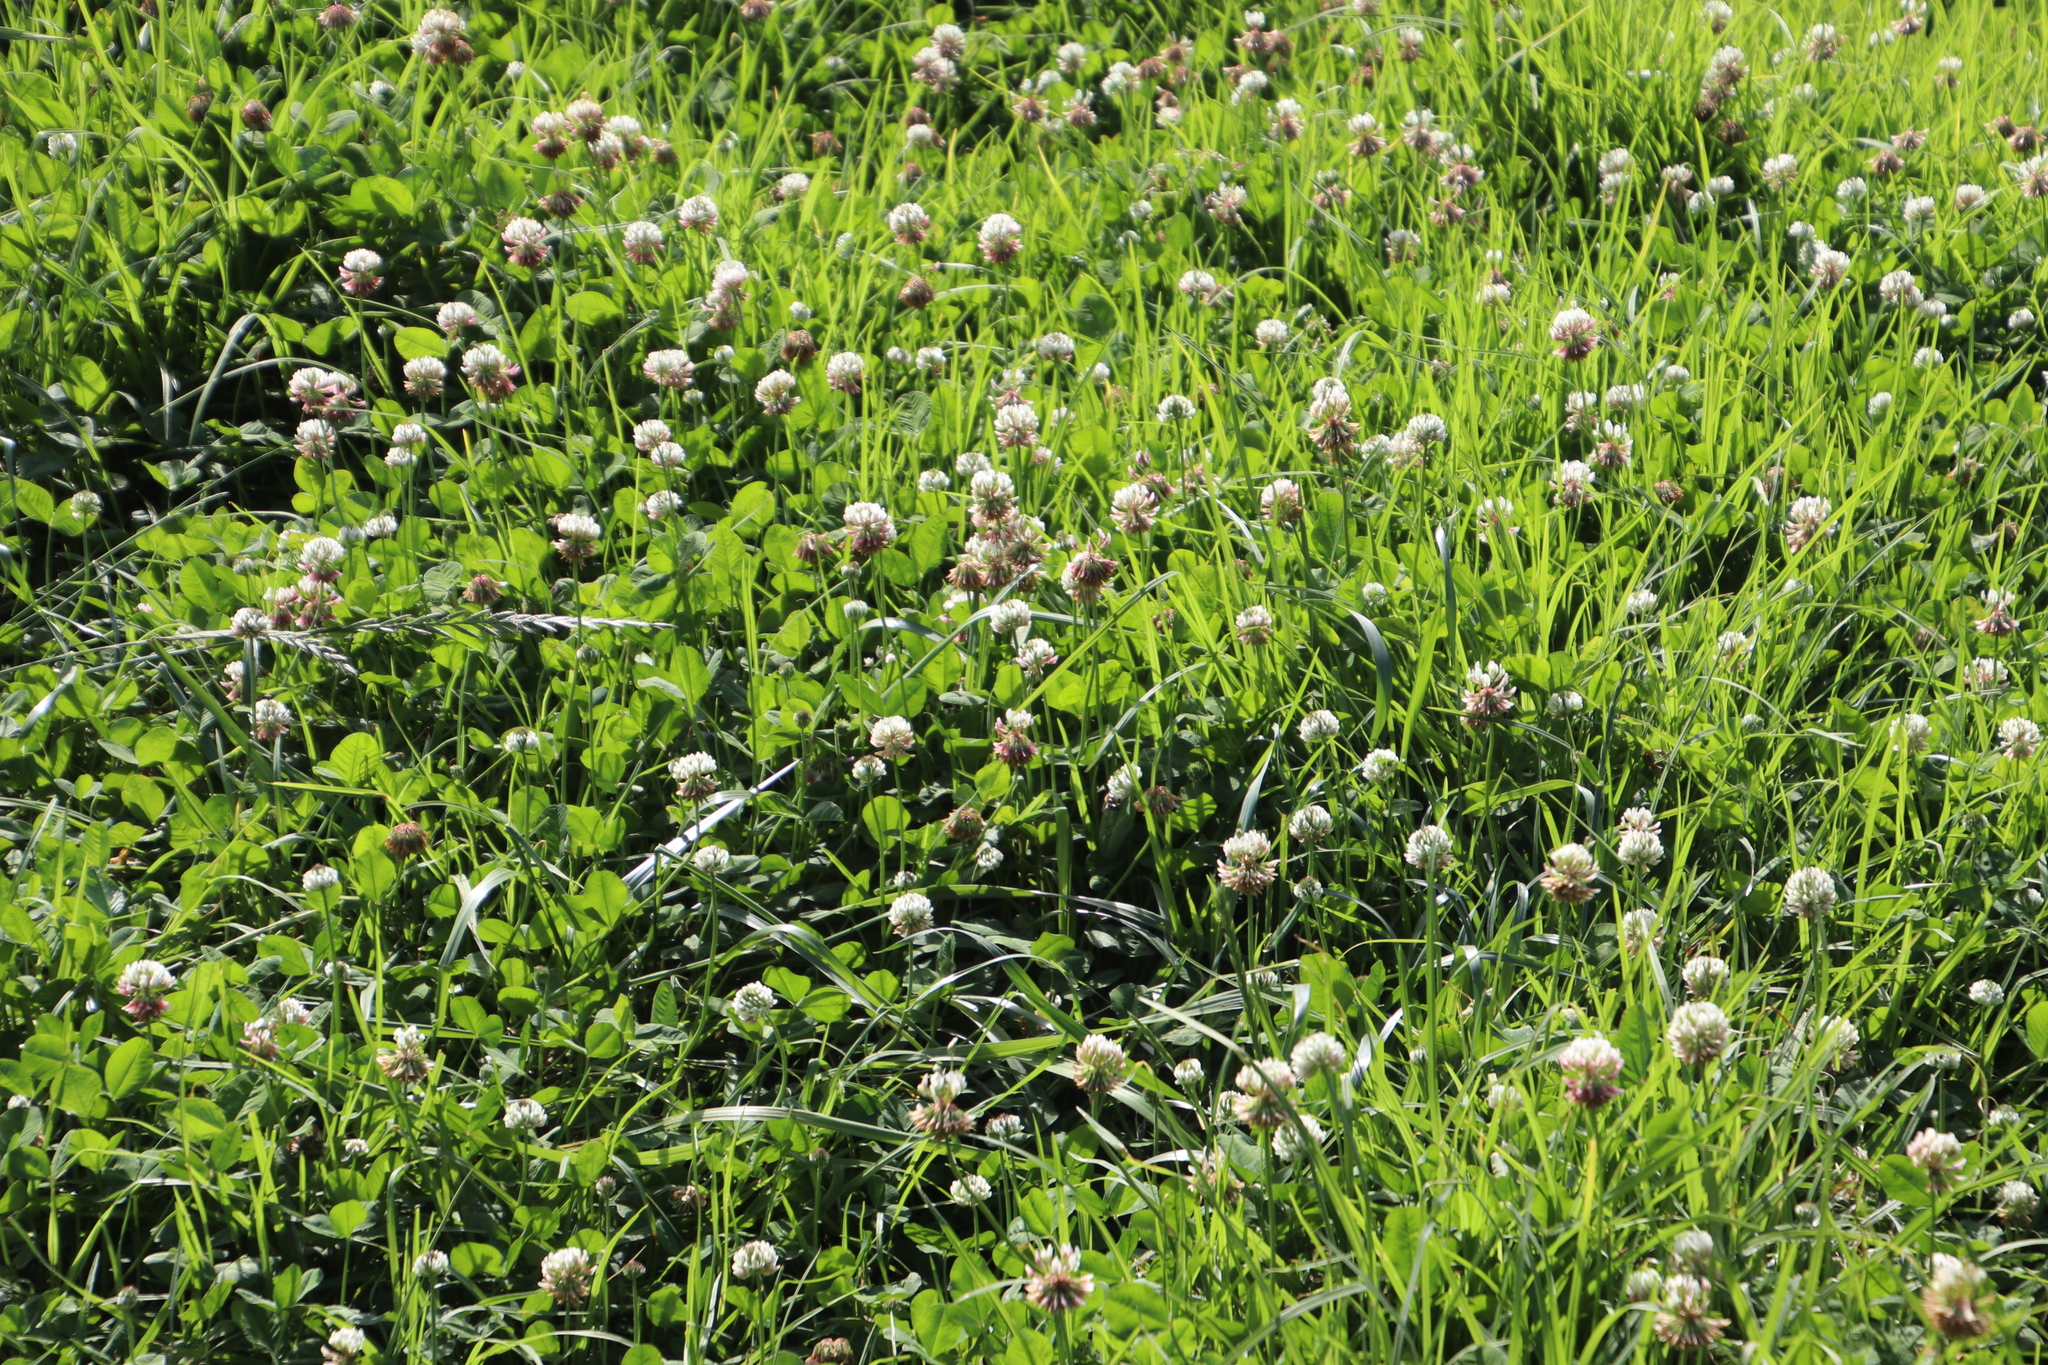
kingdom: Plantae
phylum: Tracheophyta
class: Magnoliopsida
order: Fabales
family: Fabaceae
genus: Trifolium
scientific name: Trifolium repens
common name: White clover
